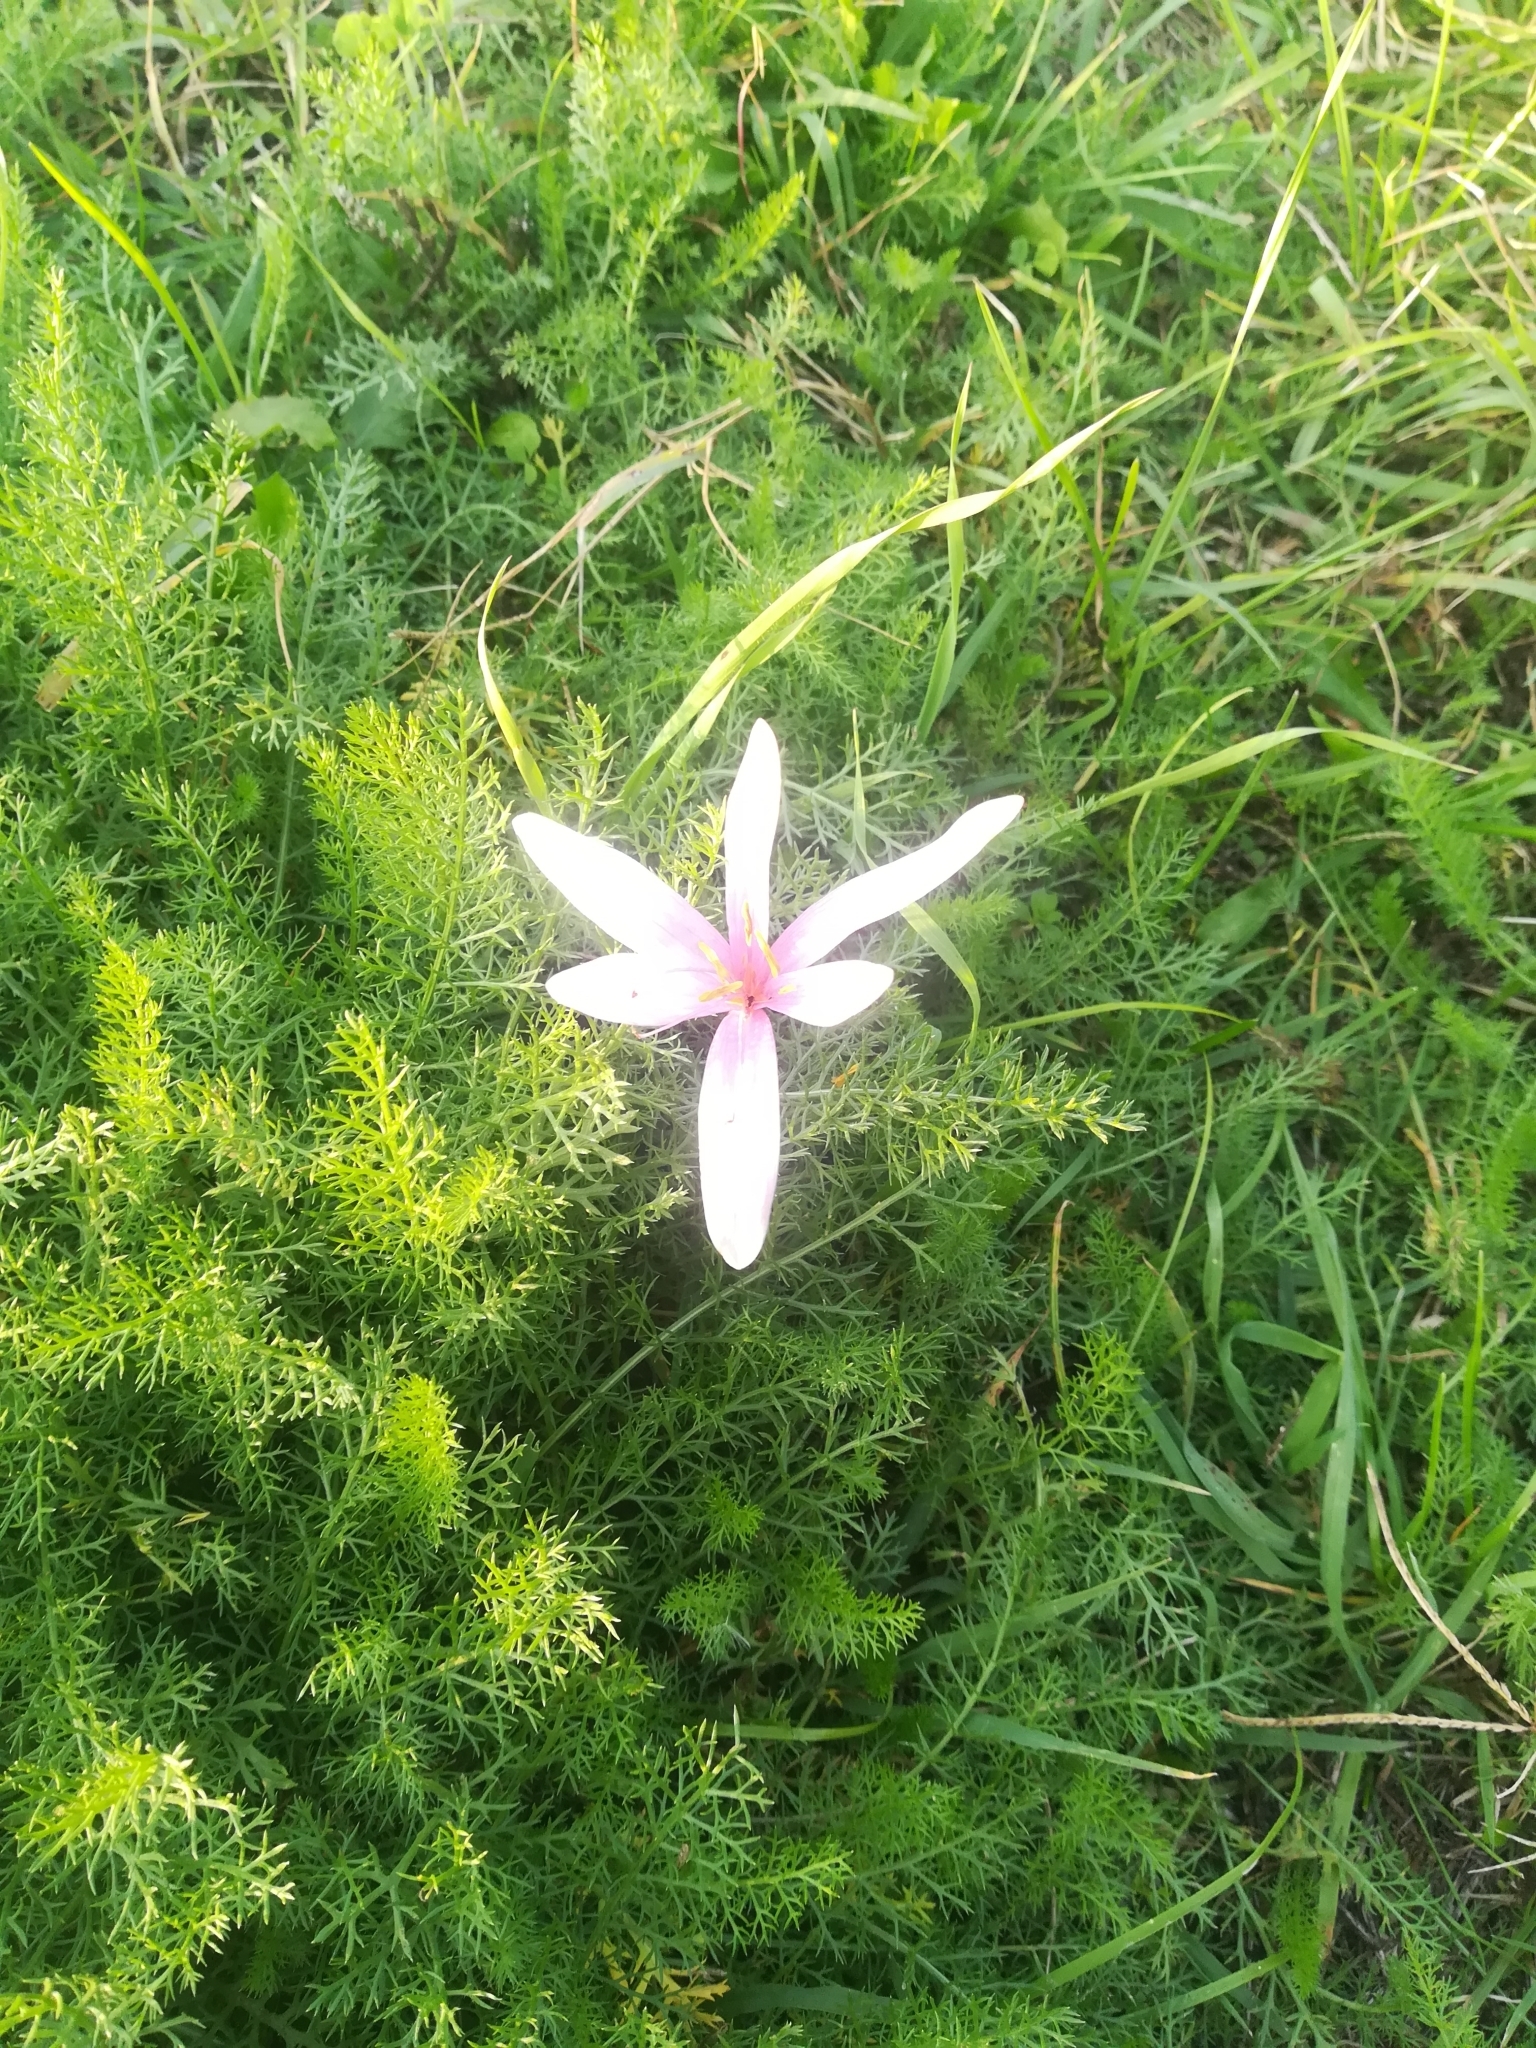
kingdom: Plantae
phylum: Tracheophyta
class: Liliopsida
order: Liliales
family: Colchicaceae
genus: Colchicum
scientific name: Colchicum autumnale
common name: Autumn crocus
